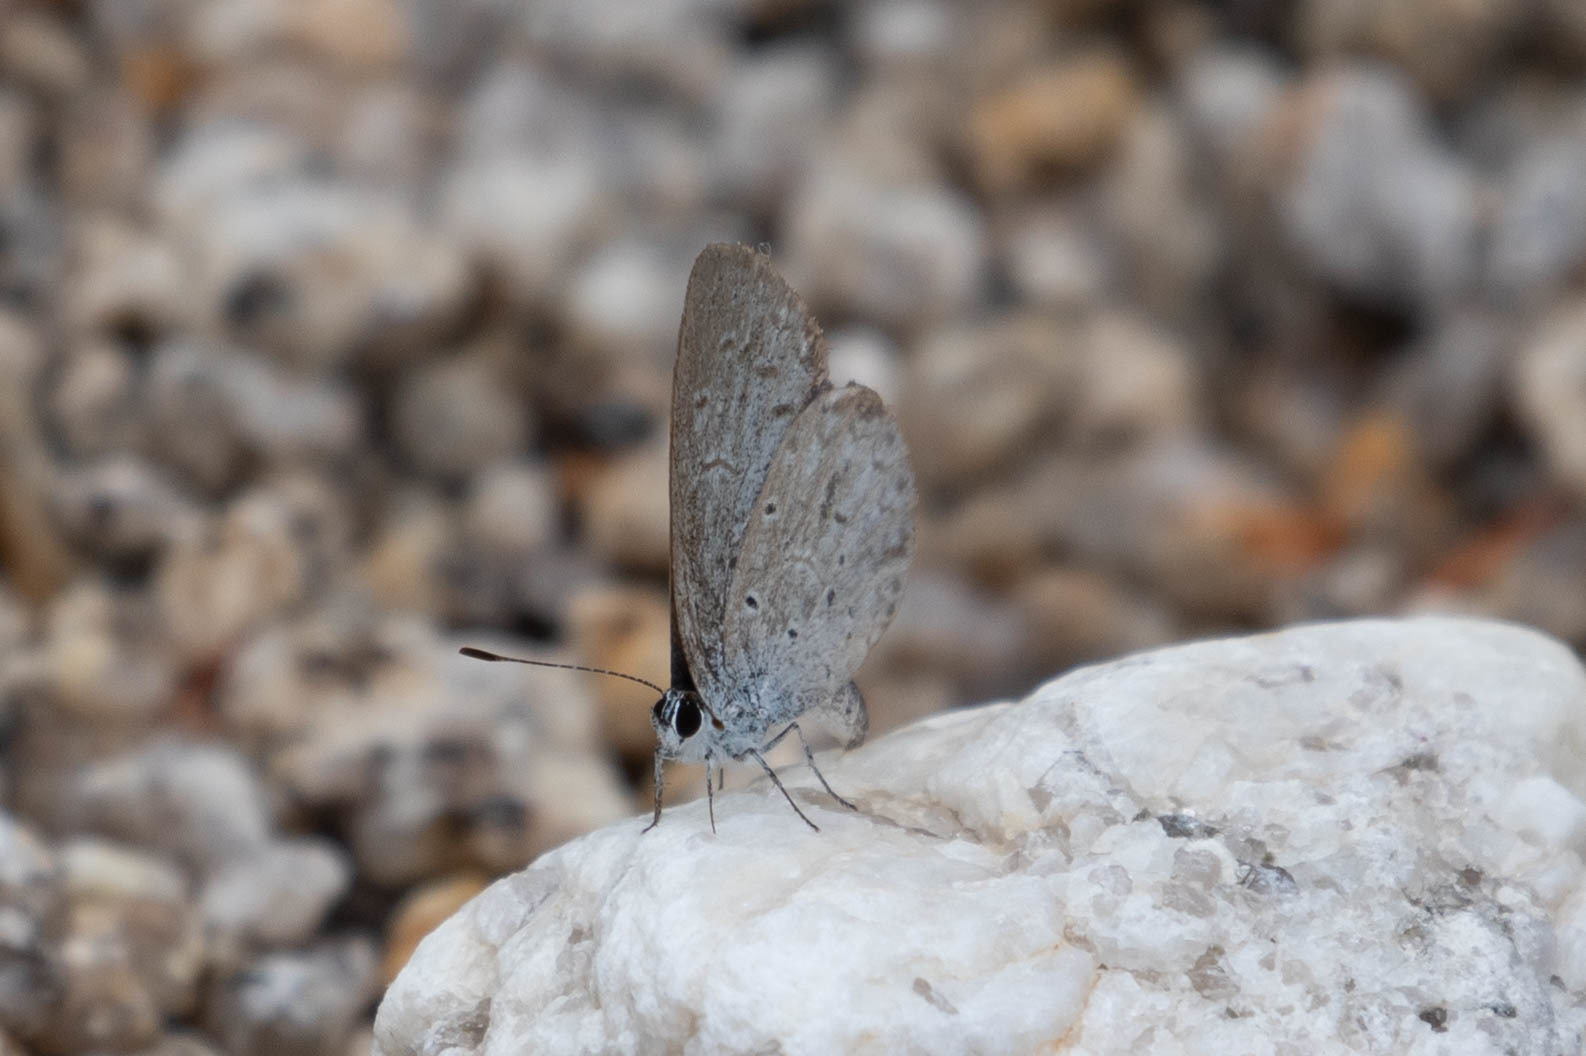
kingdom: Animalia
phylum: Arthropoda
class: Insecta
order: Lepidoptera
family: Lycaenidae
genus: Celastrina
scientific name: Celastrina ladon
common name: Spring azure
